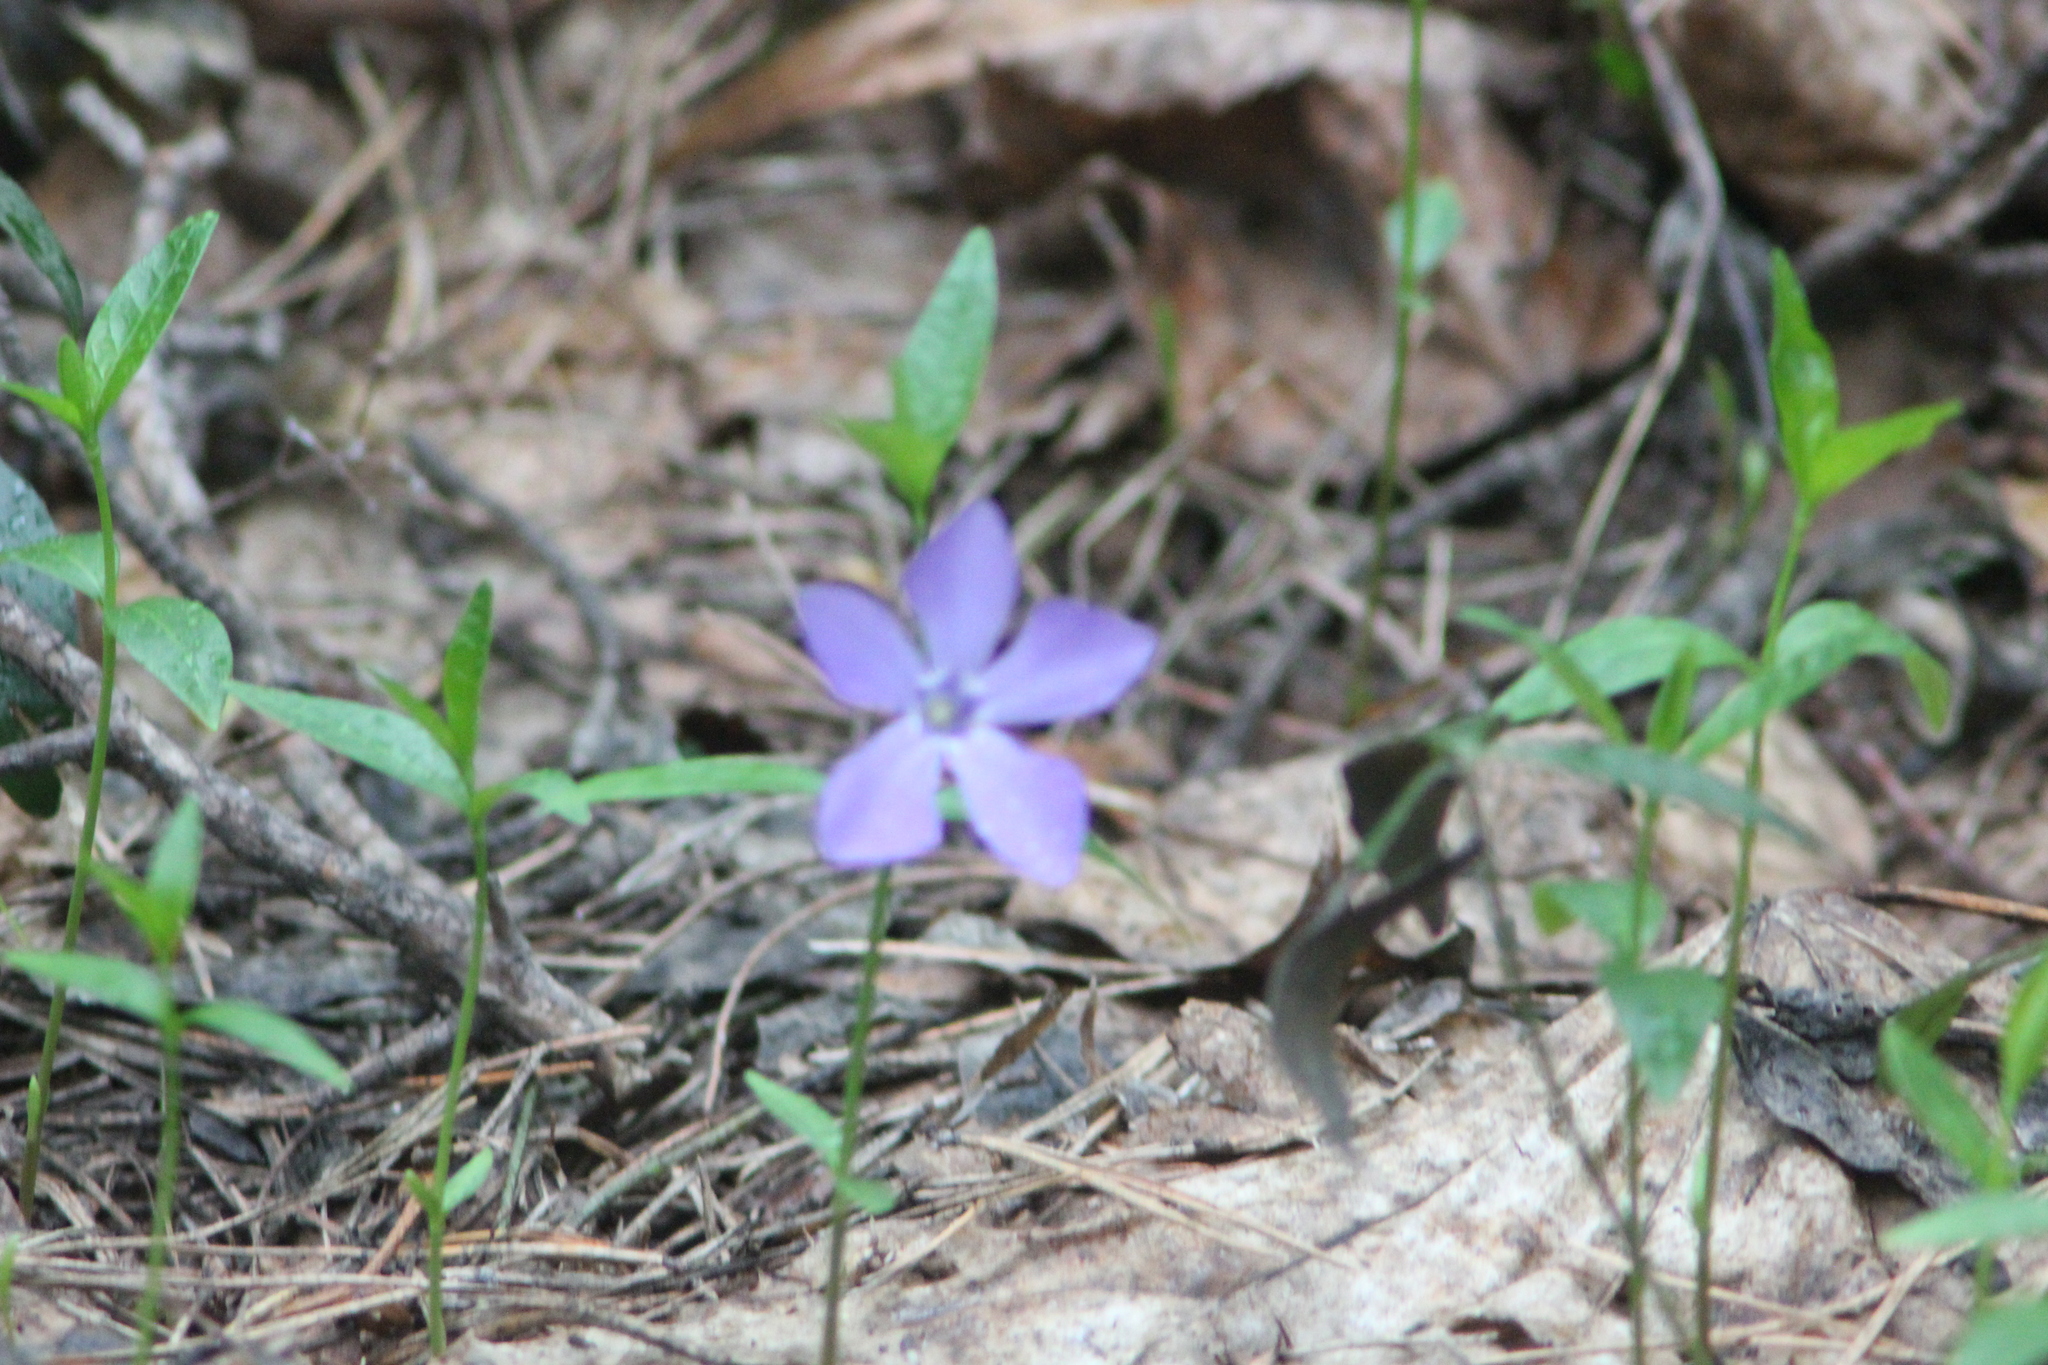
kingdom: Plantae
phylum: Tracheophyta
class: Magnoliopsida
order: Gentianales
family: Apocynaceae
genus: Vinca
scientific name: Vinca minor
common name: Lesser periwinkle
